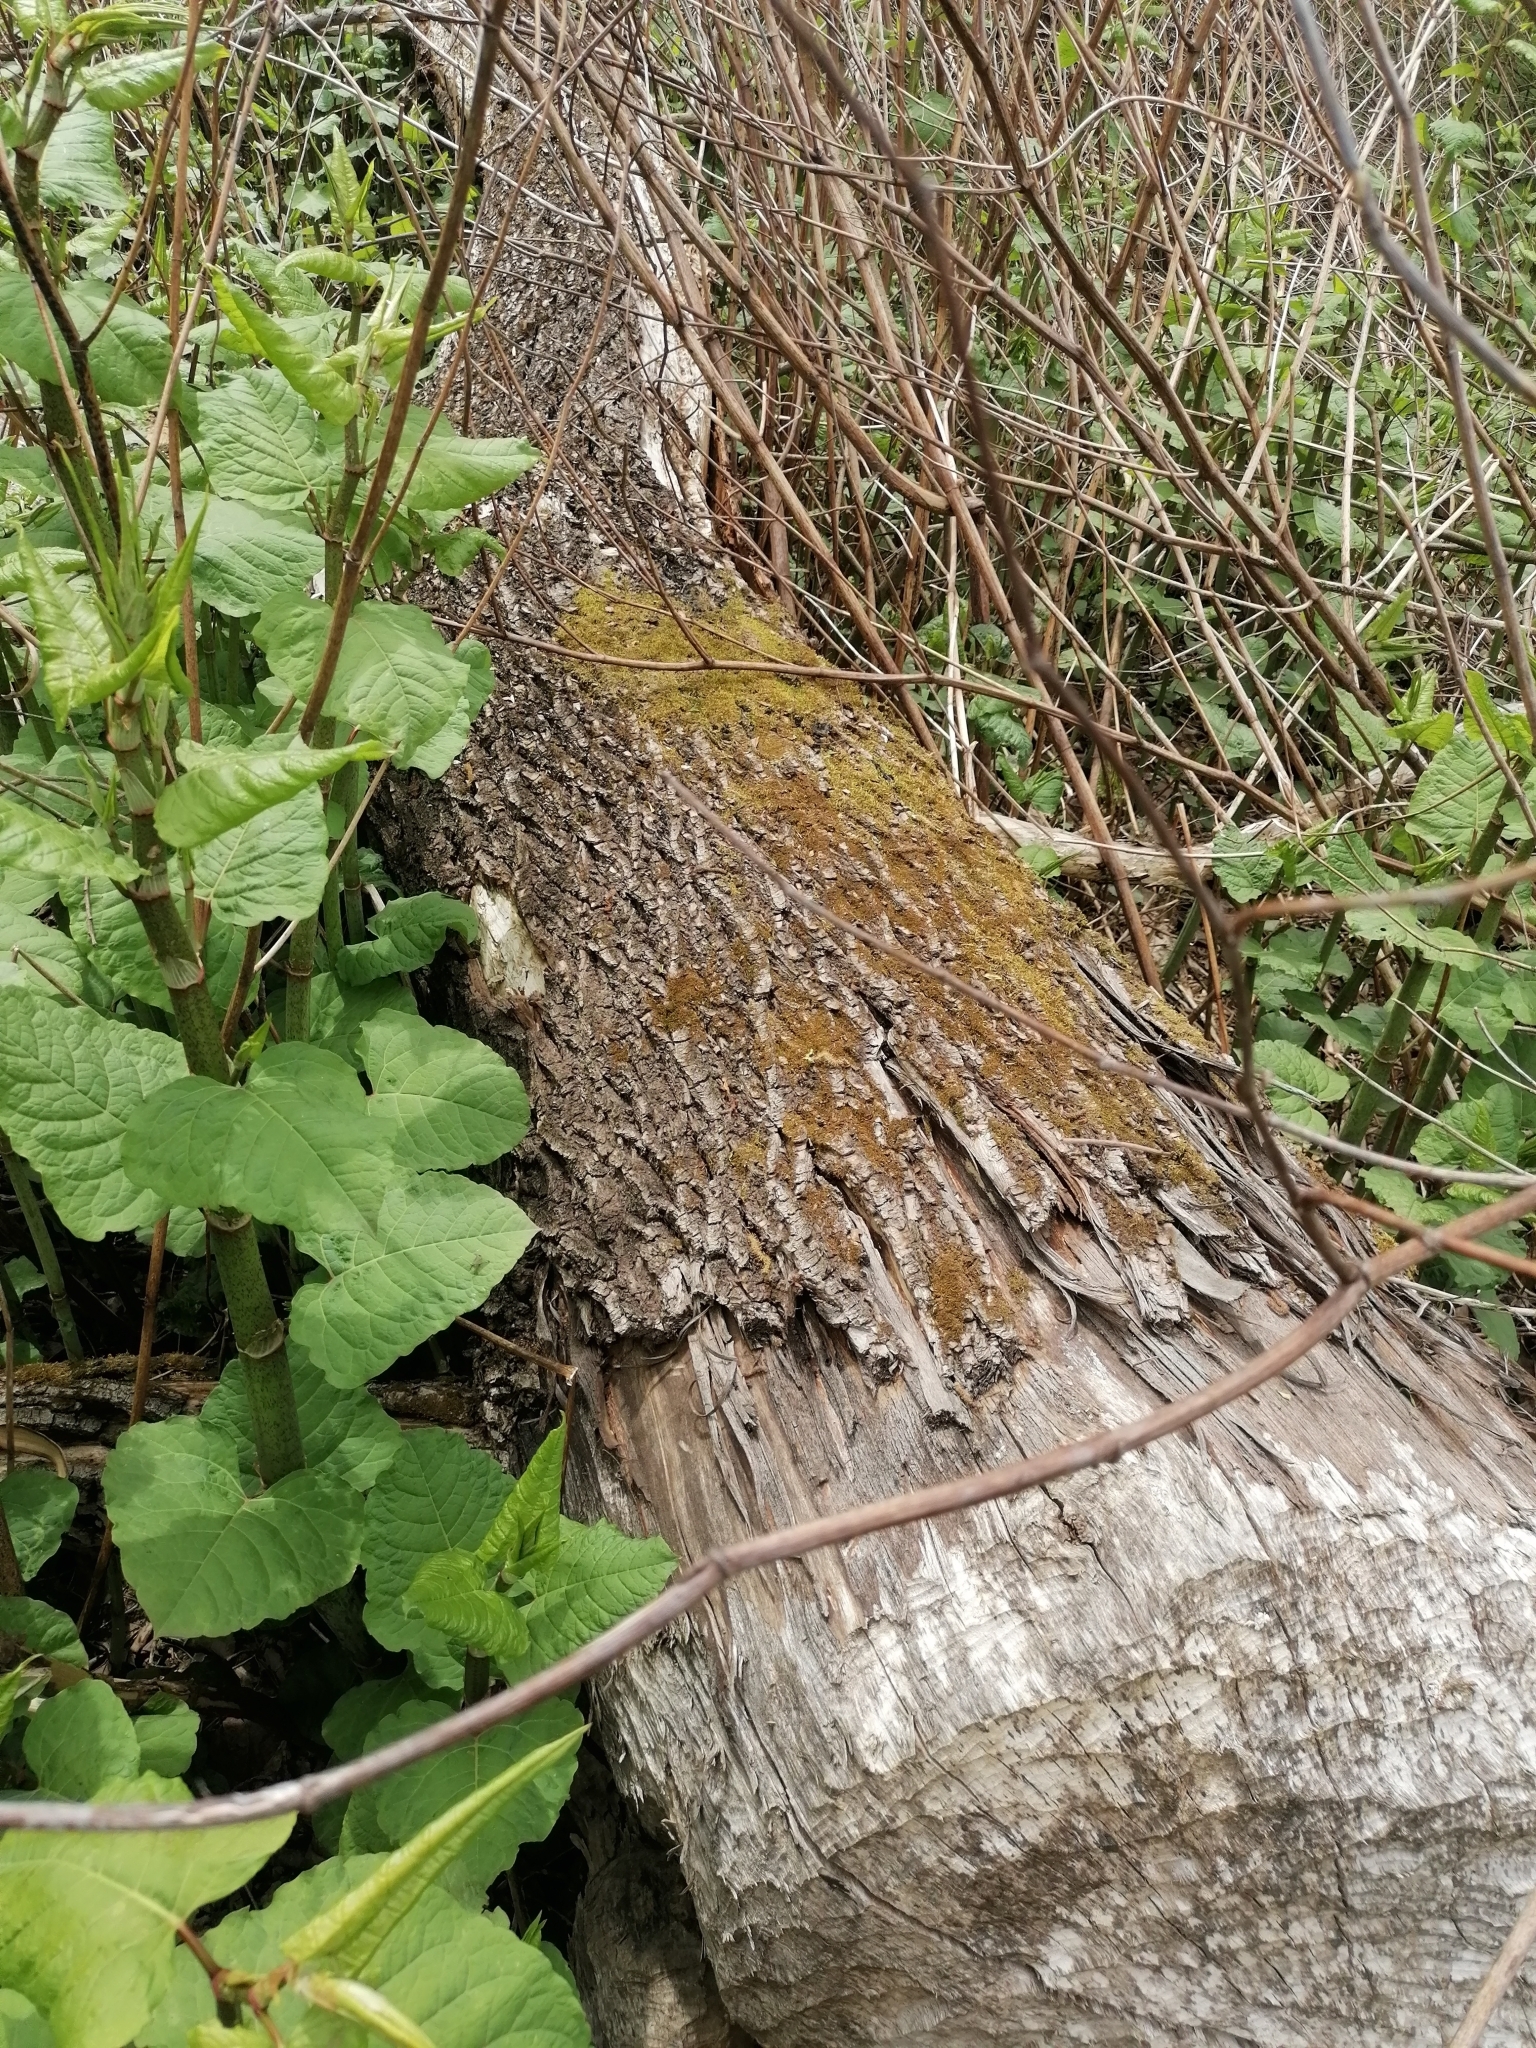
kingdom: Animalia
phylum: Chordata
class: Mammalia
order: Rodentia
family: Castoridae
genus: Castor
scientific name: Castor fiber
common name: Eurasian beaver
